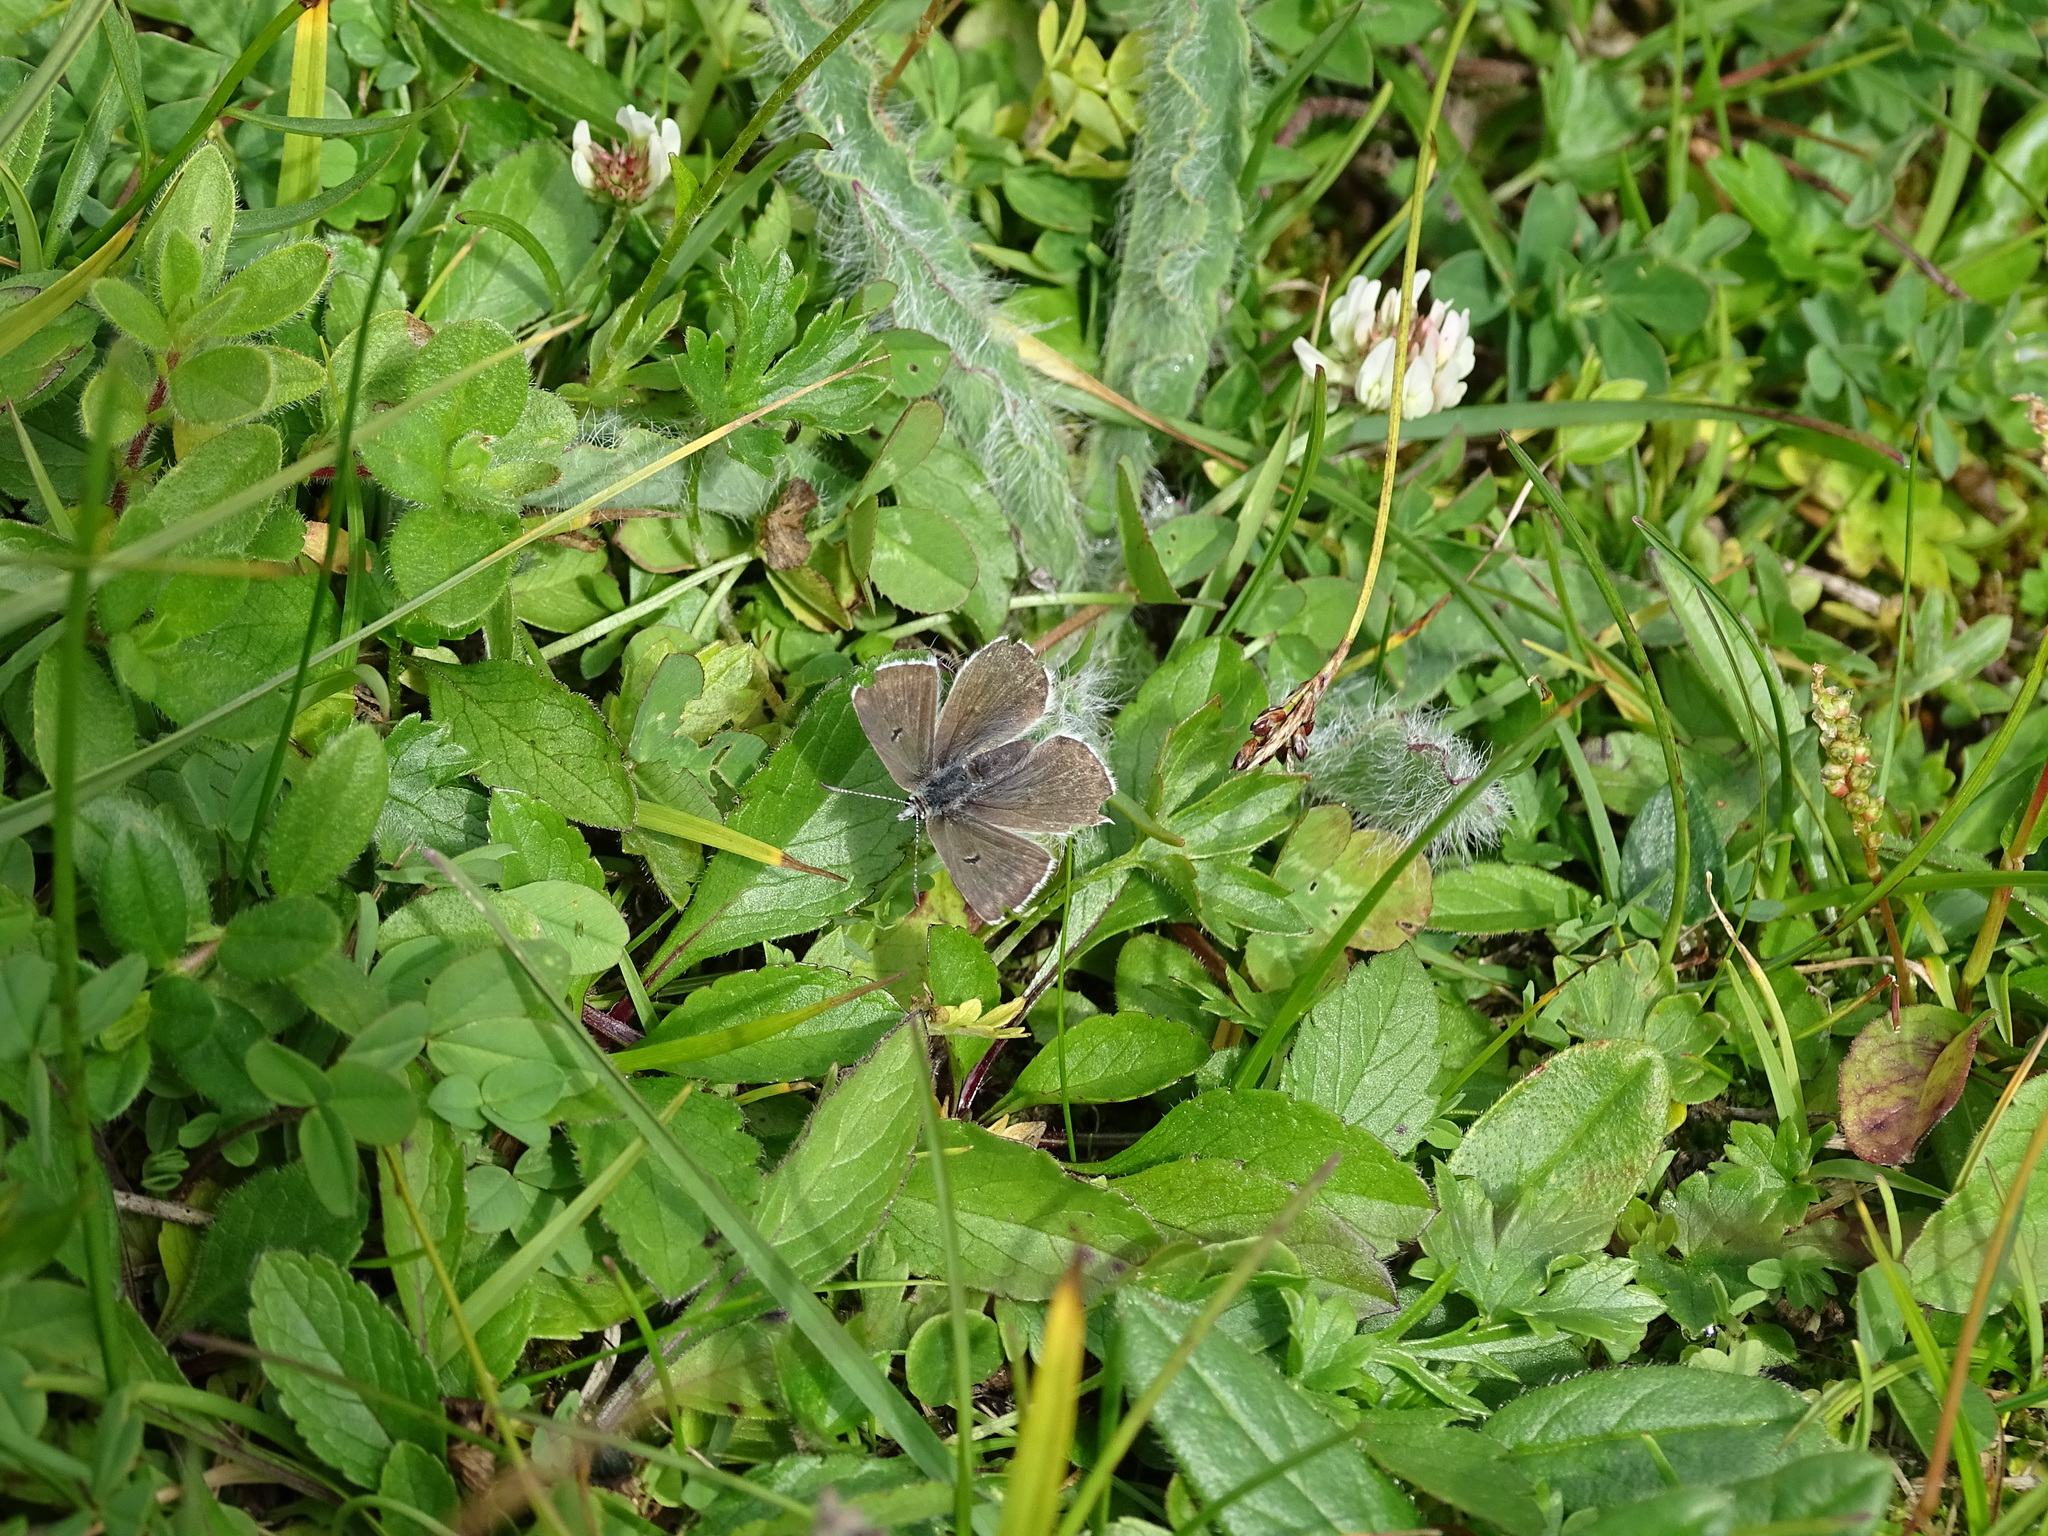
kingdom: Animalia
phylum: Arthropoda
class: Insecta
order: Lepidoptera
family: Lycaenidae
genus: Agriades
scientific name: Agriades glandon
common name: Glandon blue
